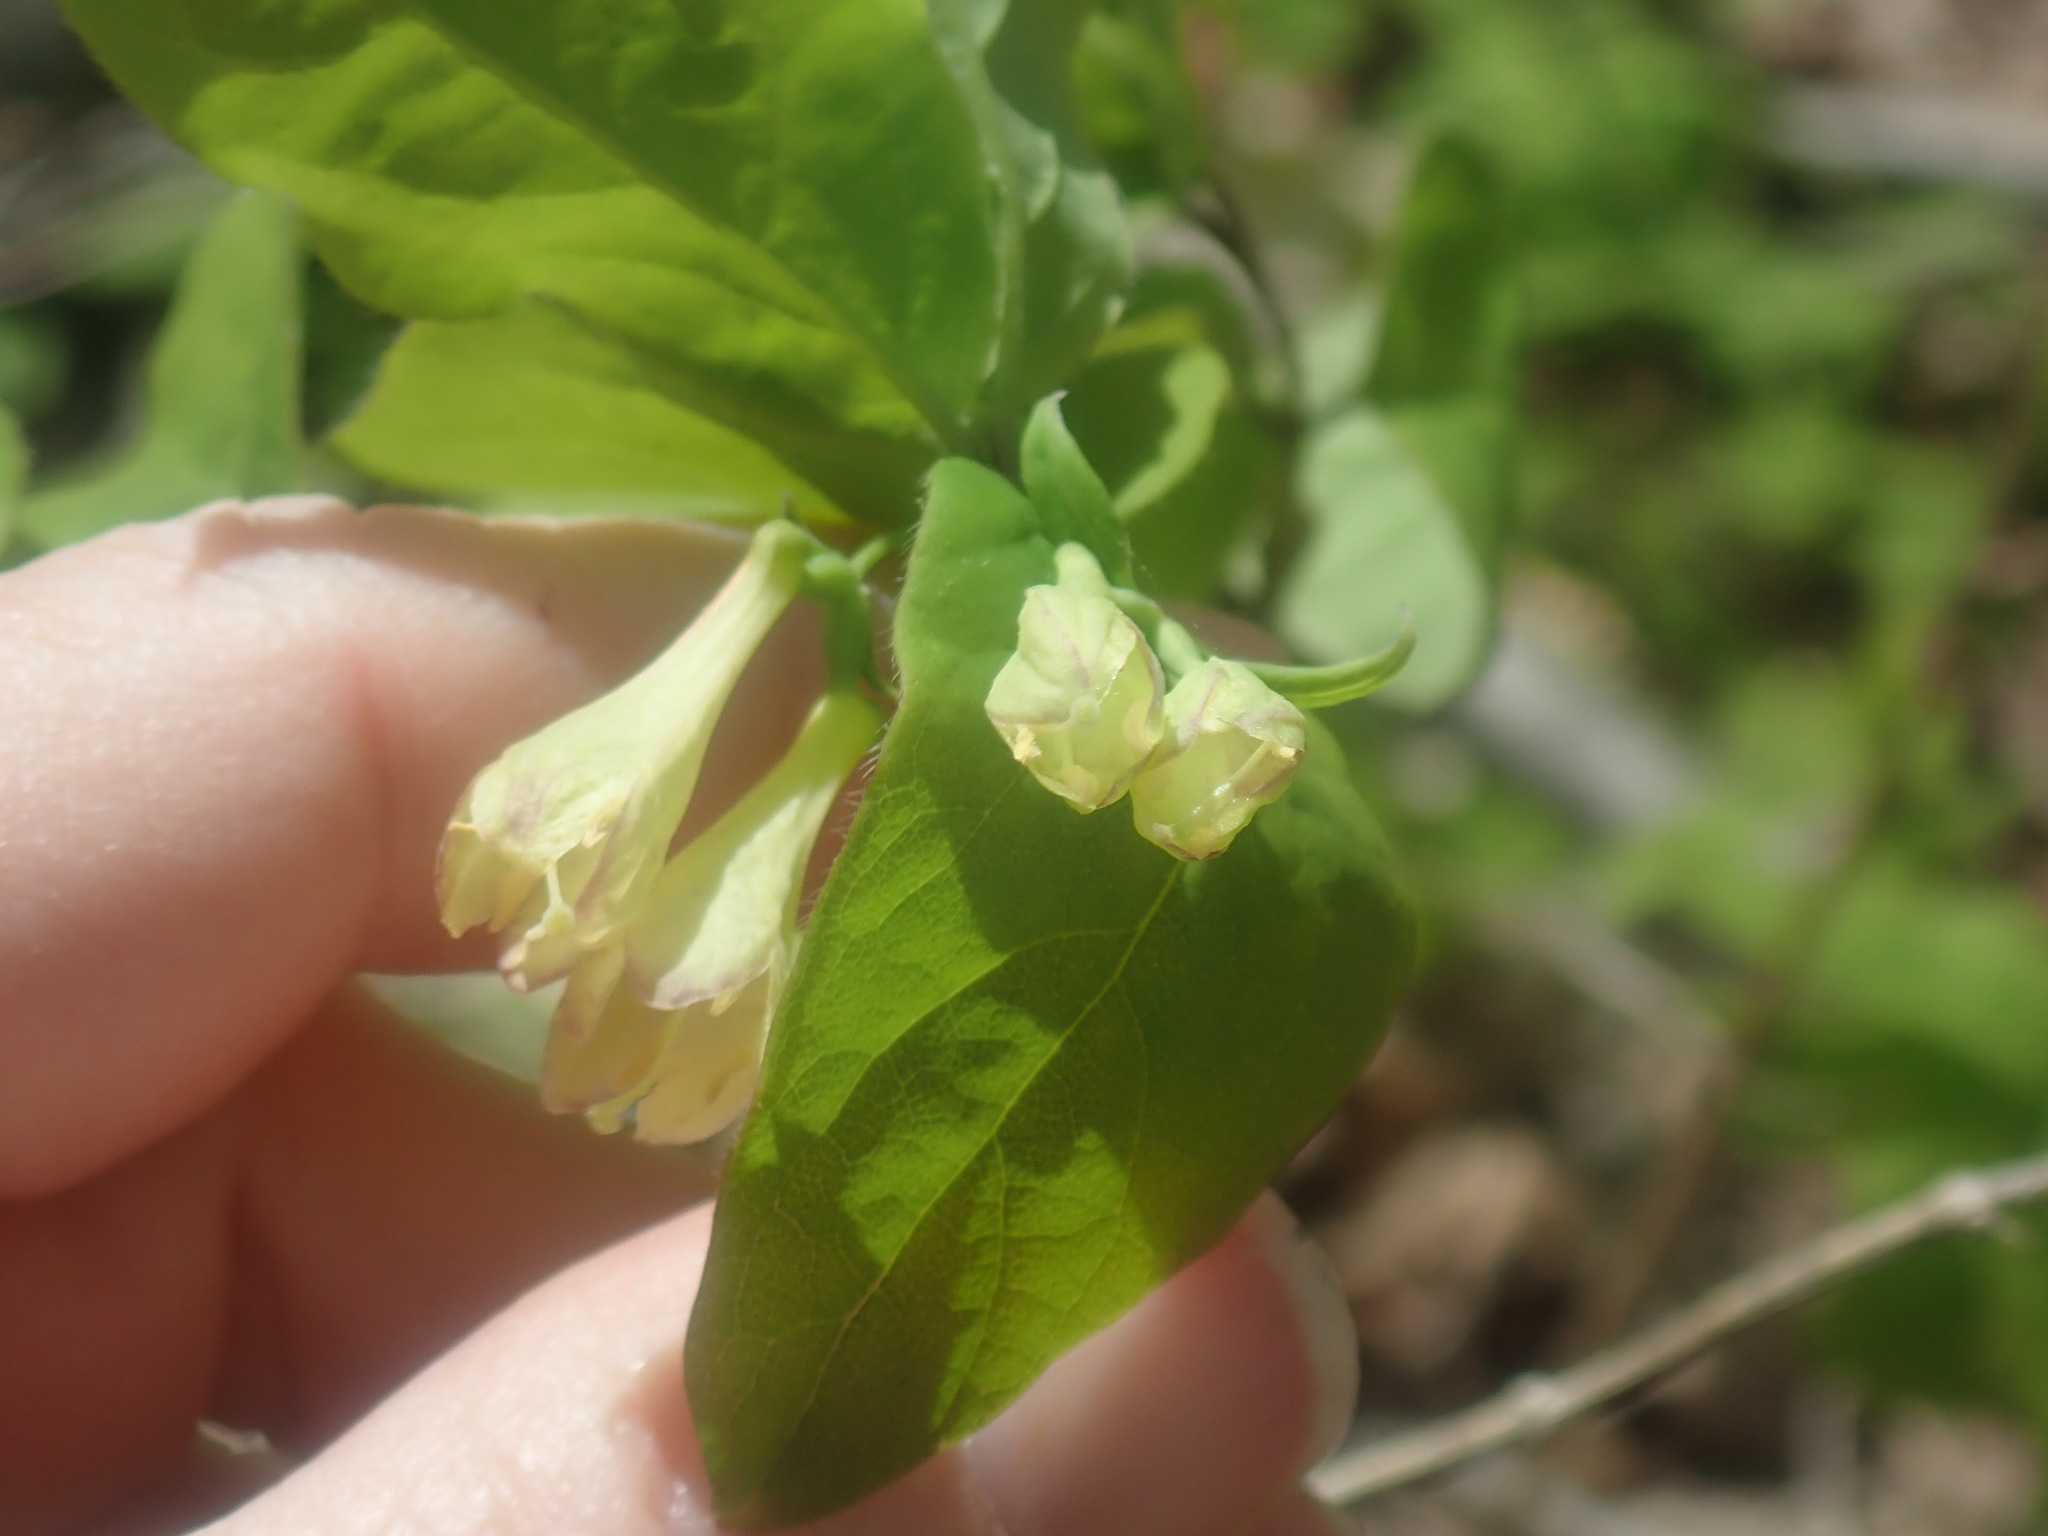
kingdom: Plantae
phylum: Tracheophyta
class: Magnoliopsida
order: Dipsacales
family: Caprifoliaceae
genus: Lonicera
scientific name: Lonicera canadensis
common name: American fly-honeysuckle
